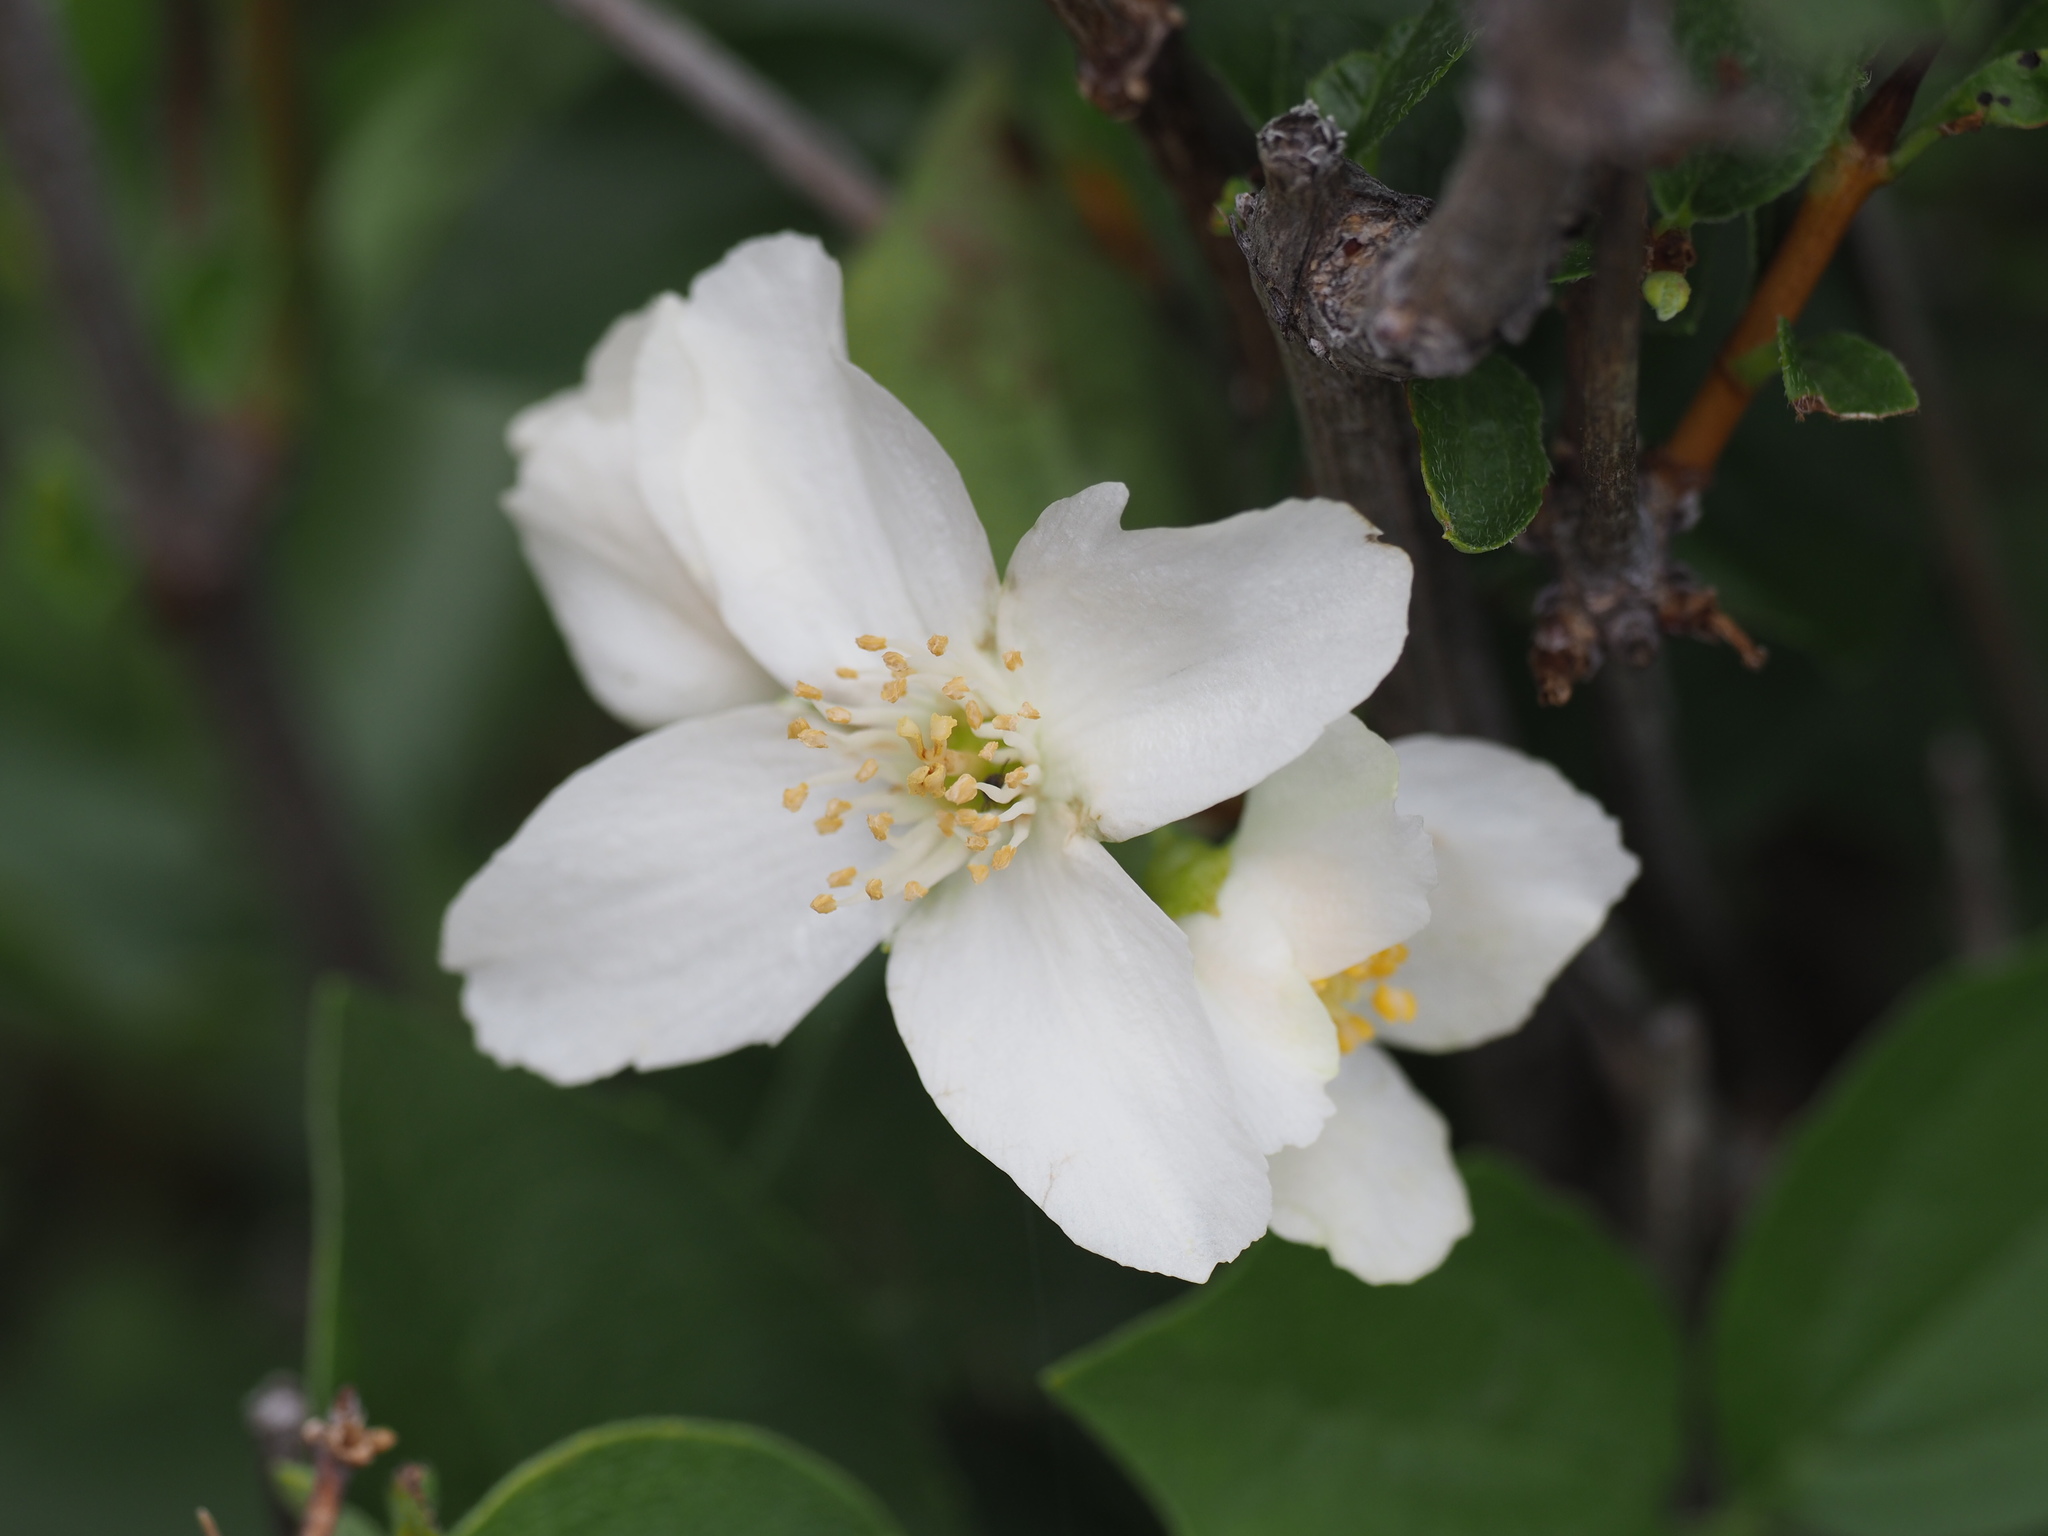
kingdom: Plantae
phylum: Tracheophyta
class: Magnoliopsida
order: Cornales
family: Hydrangeaceae
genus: Philadelphus
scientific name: Philadelphus lewisii
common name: Lewis's mock orange
